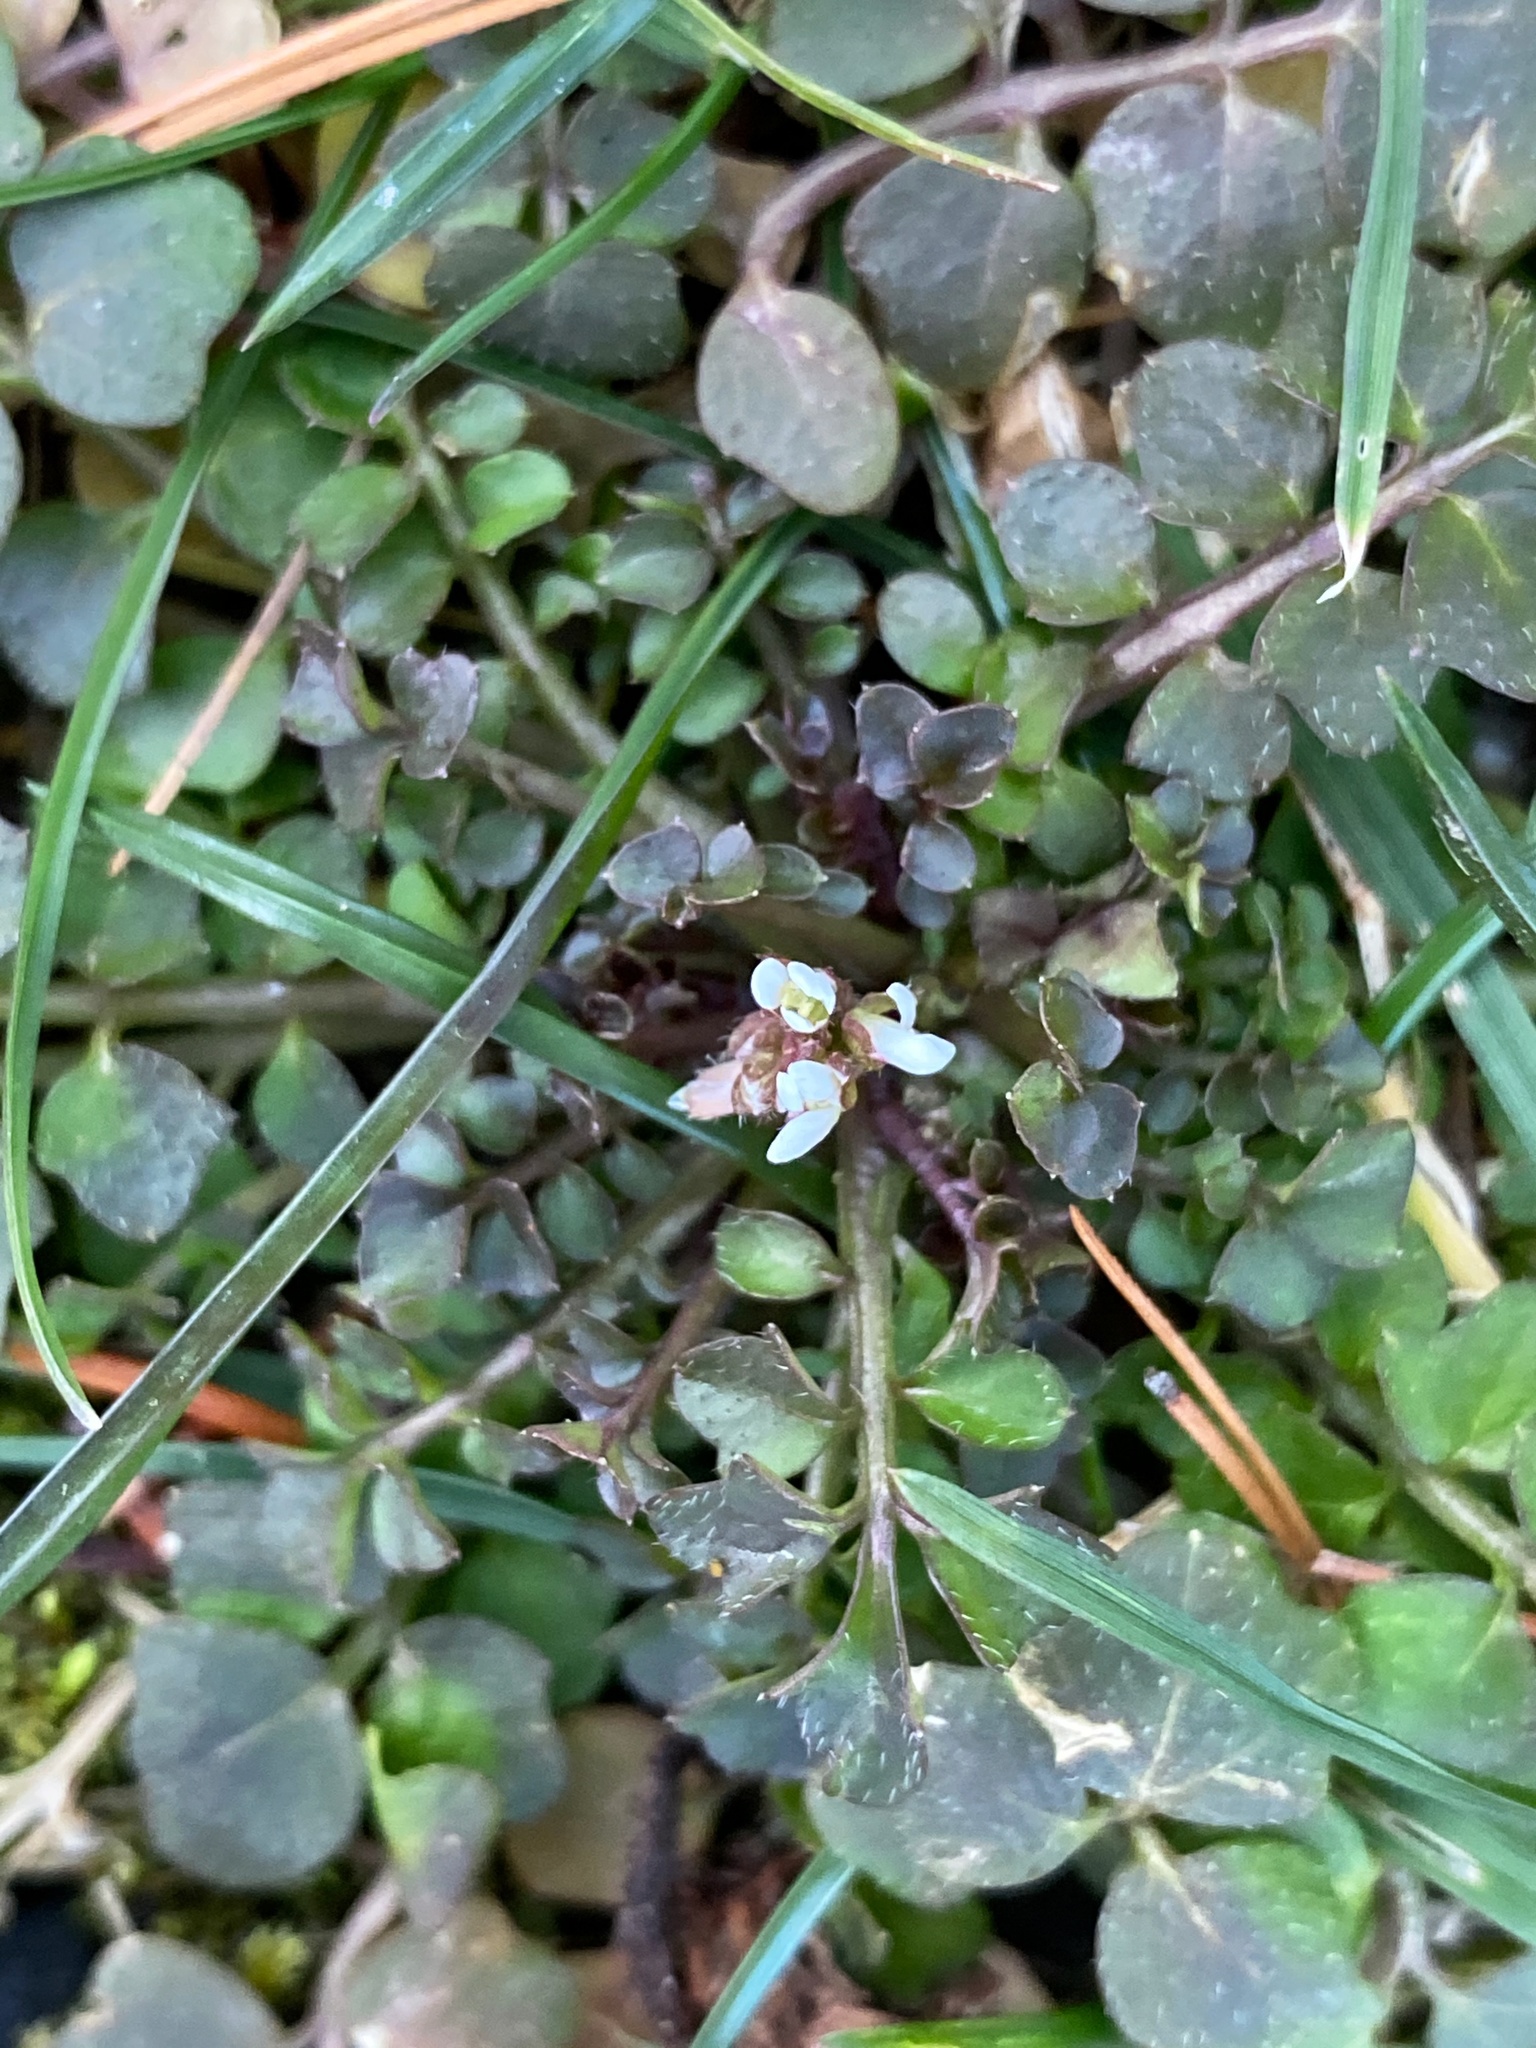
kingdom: Plantae
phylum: Tracheophyta
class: Magnoliopsida
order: Brassicales
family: Brassicaceae
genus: Cardamine
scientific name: Cardamine hirsuta
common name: Hairy bittercress
